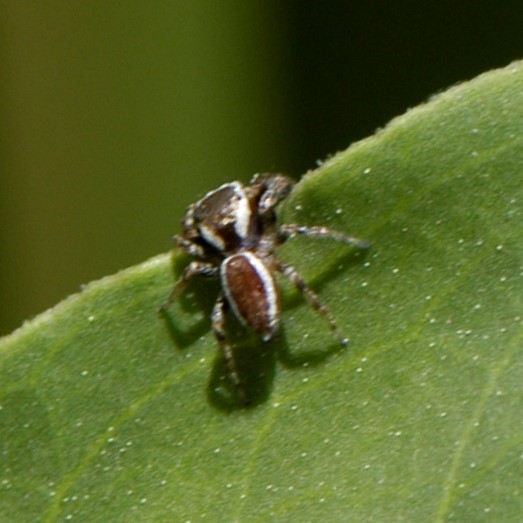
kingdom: Animalia
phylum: Arthropoda
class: Arachnida
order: Araneae
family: Salticidae
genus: Pelegrina
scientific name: Pelegrina furcata
